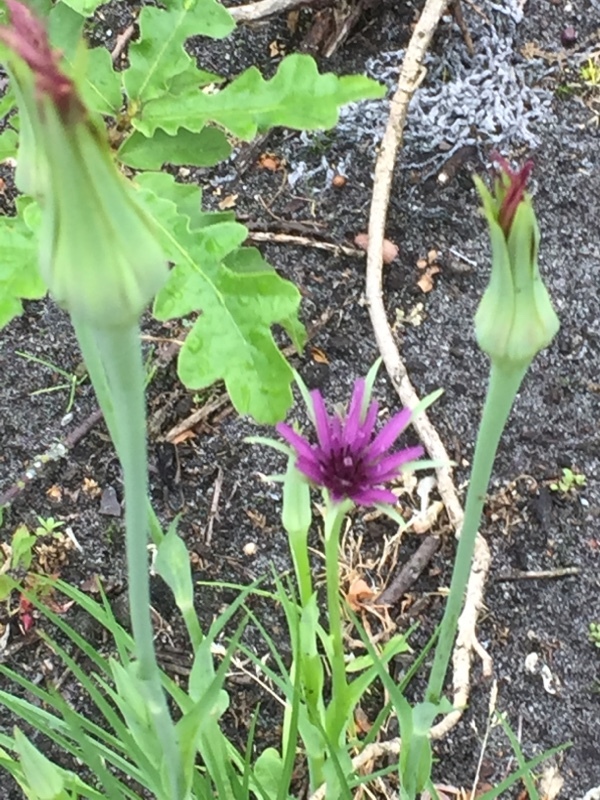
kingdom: Plantae
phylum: Tracheophyta
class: Magnoliopsida
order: Asterales
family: Asteraceae
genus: Tragopogon
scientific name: Tragopogon porrifolius
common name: Salsify
